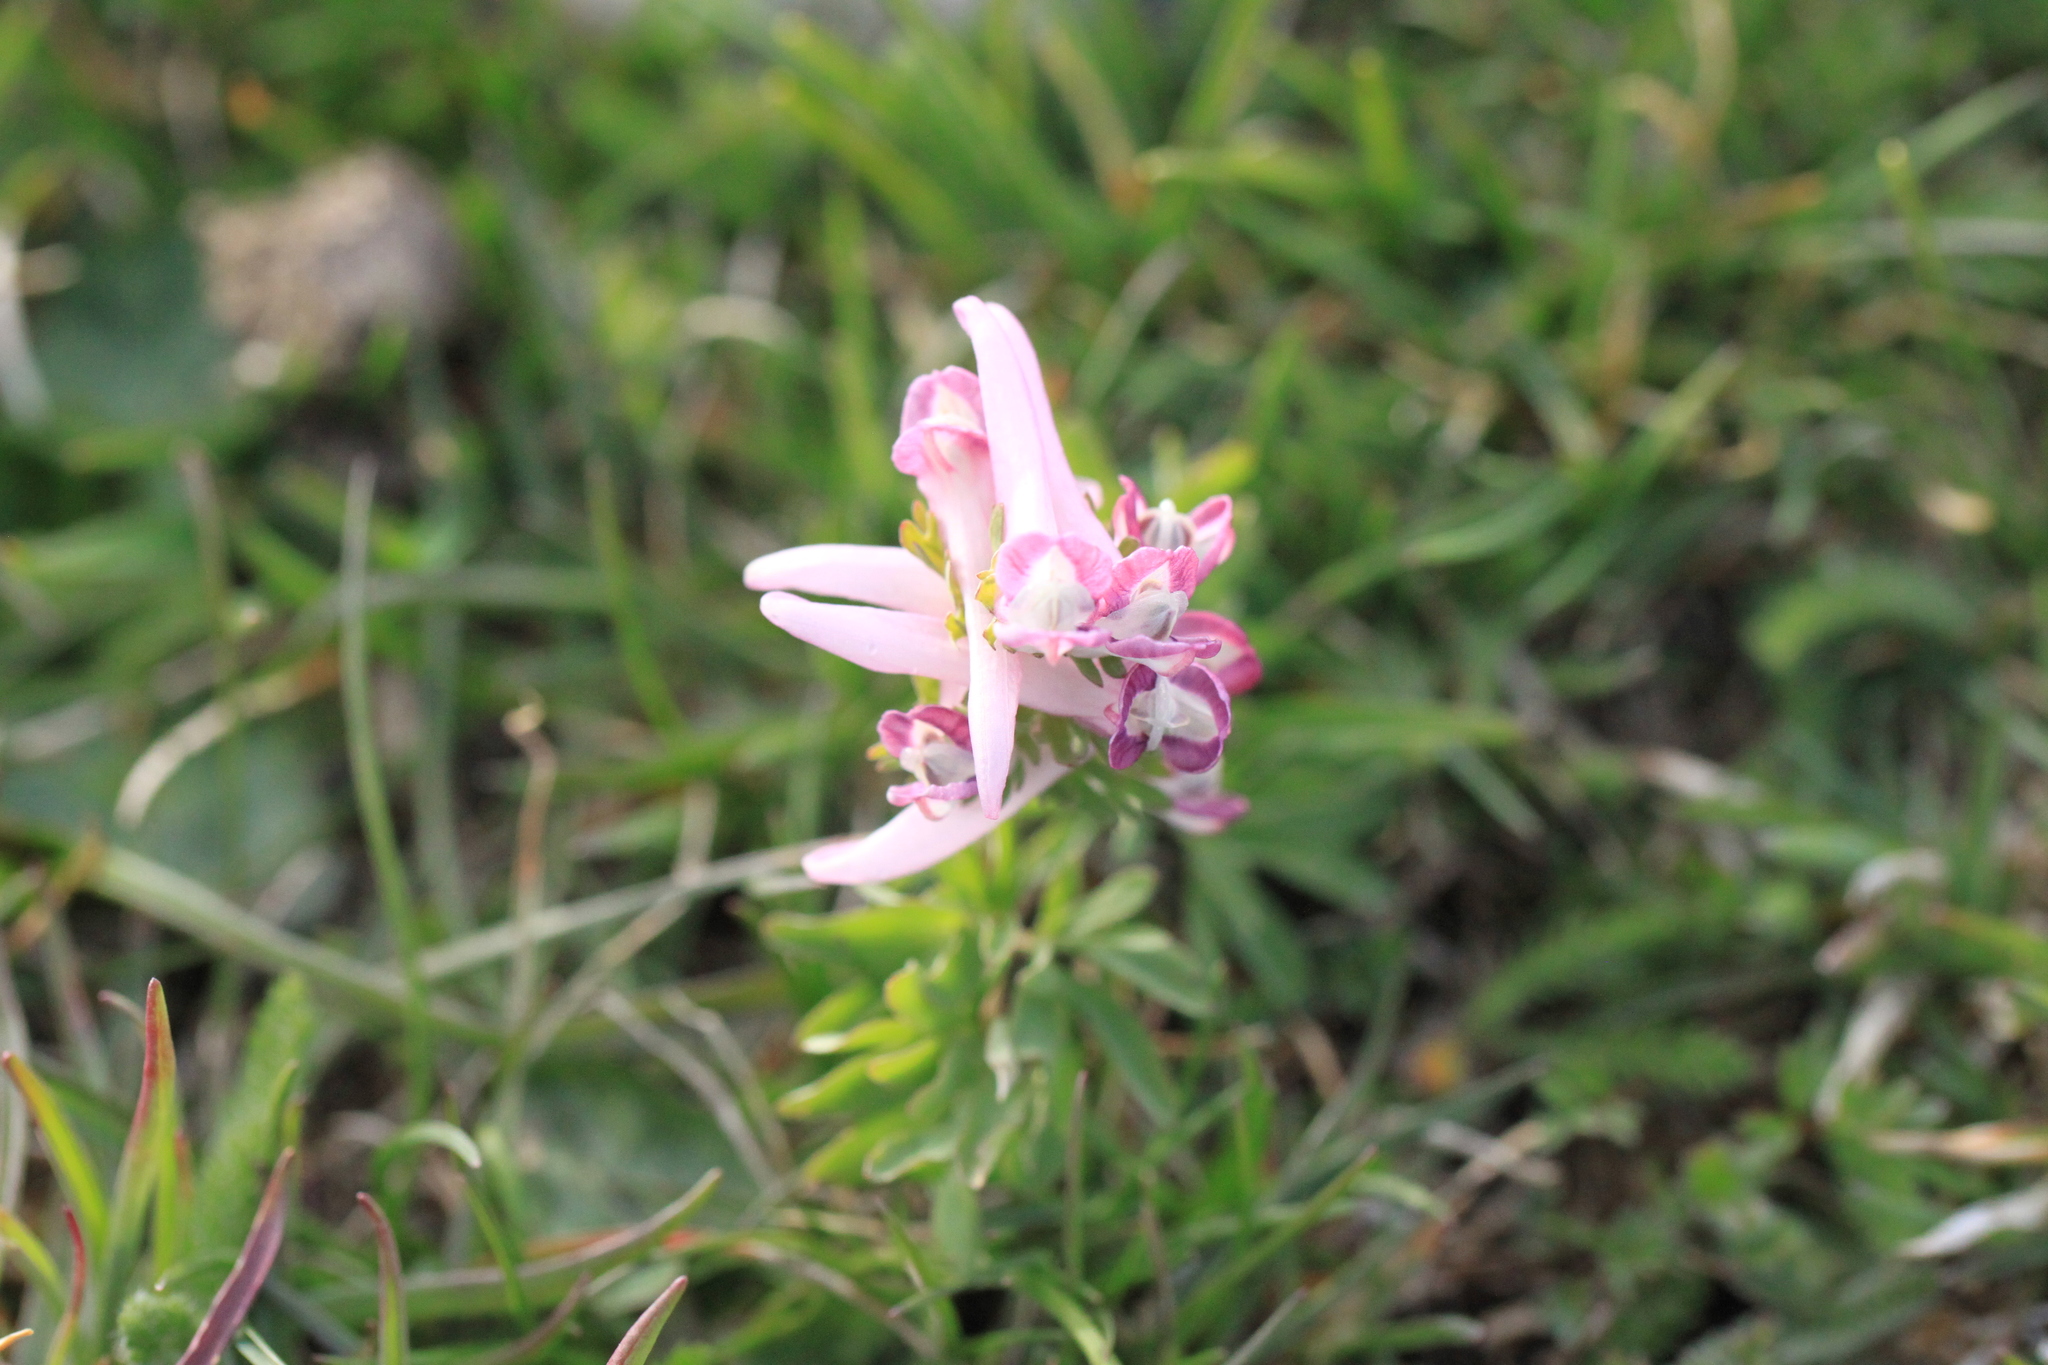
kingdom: Plantae
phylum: Tracheophyta
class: Magnoliopsida
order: Ranunculales
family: Papaveraceae
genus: Corydalis
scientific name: Corydalis densiflora
